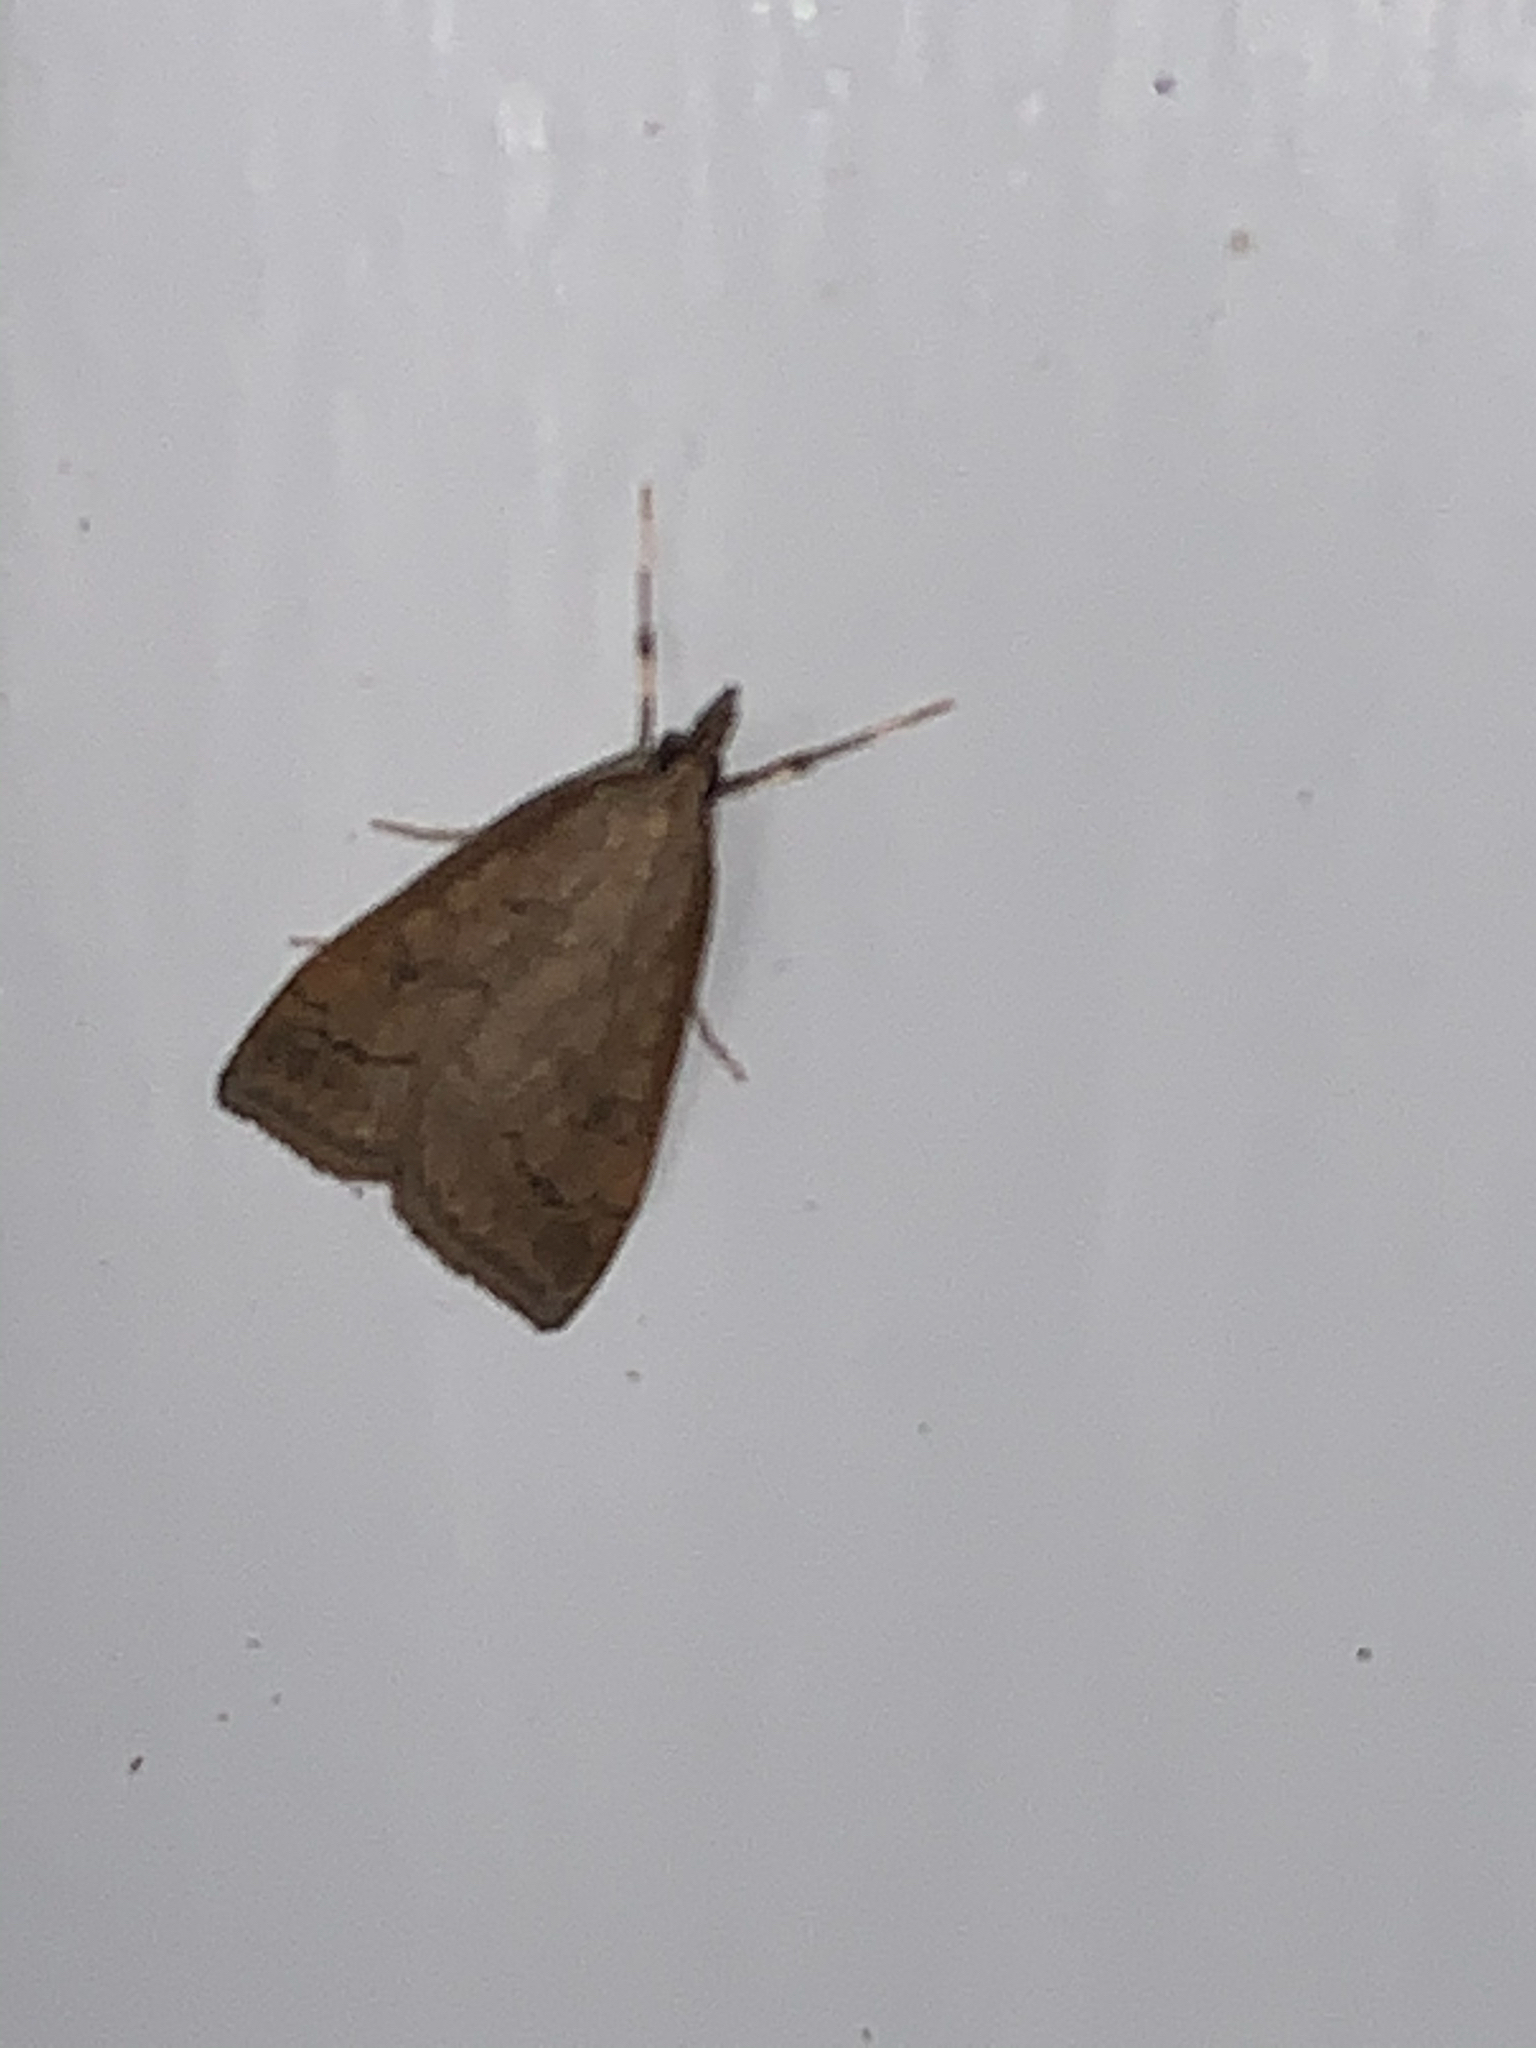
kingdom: Animalia
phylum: Arthropoda
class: Insecta
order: Lepidoptera
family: Crambidae
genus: Udea
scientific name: Udea rubigalis
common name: Celery leaftier moth
